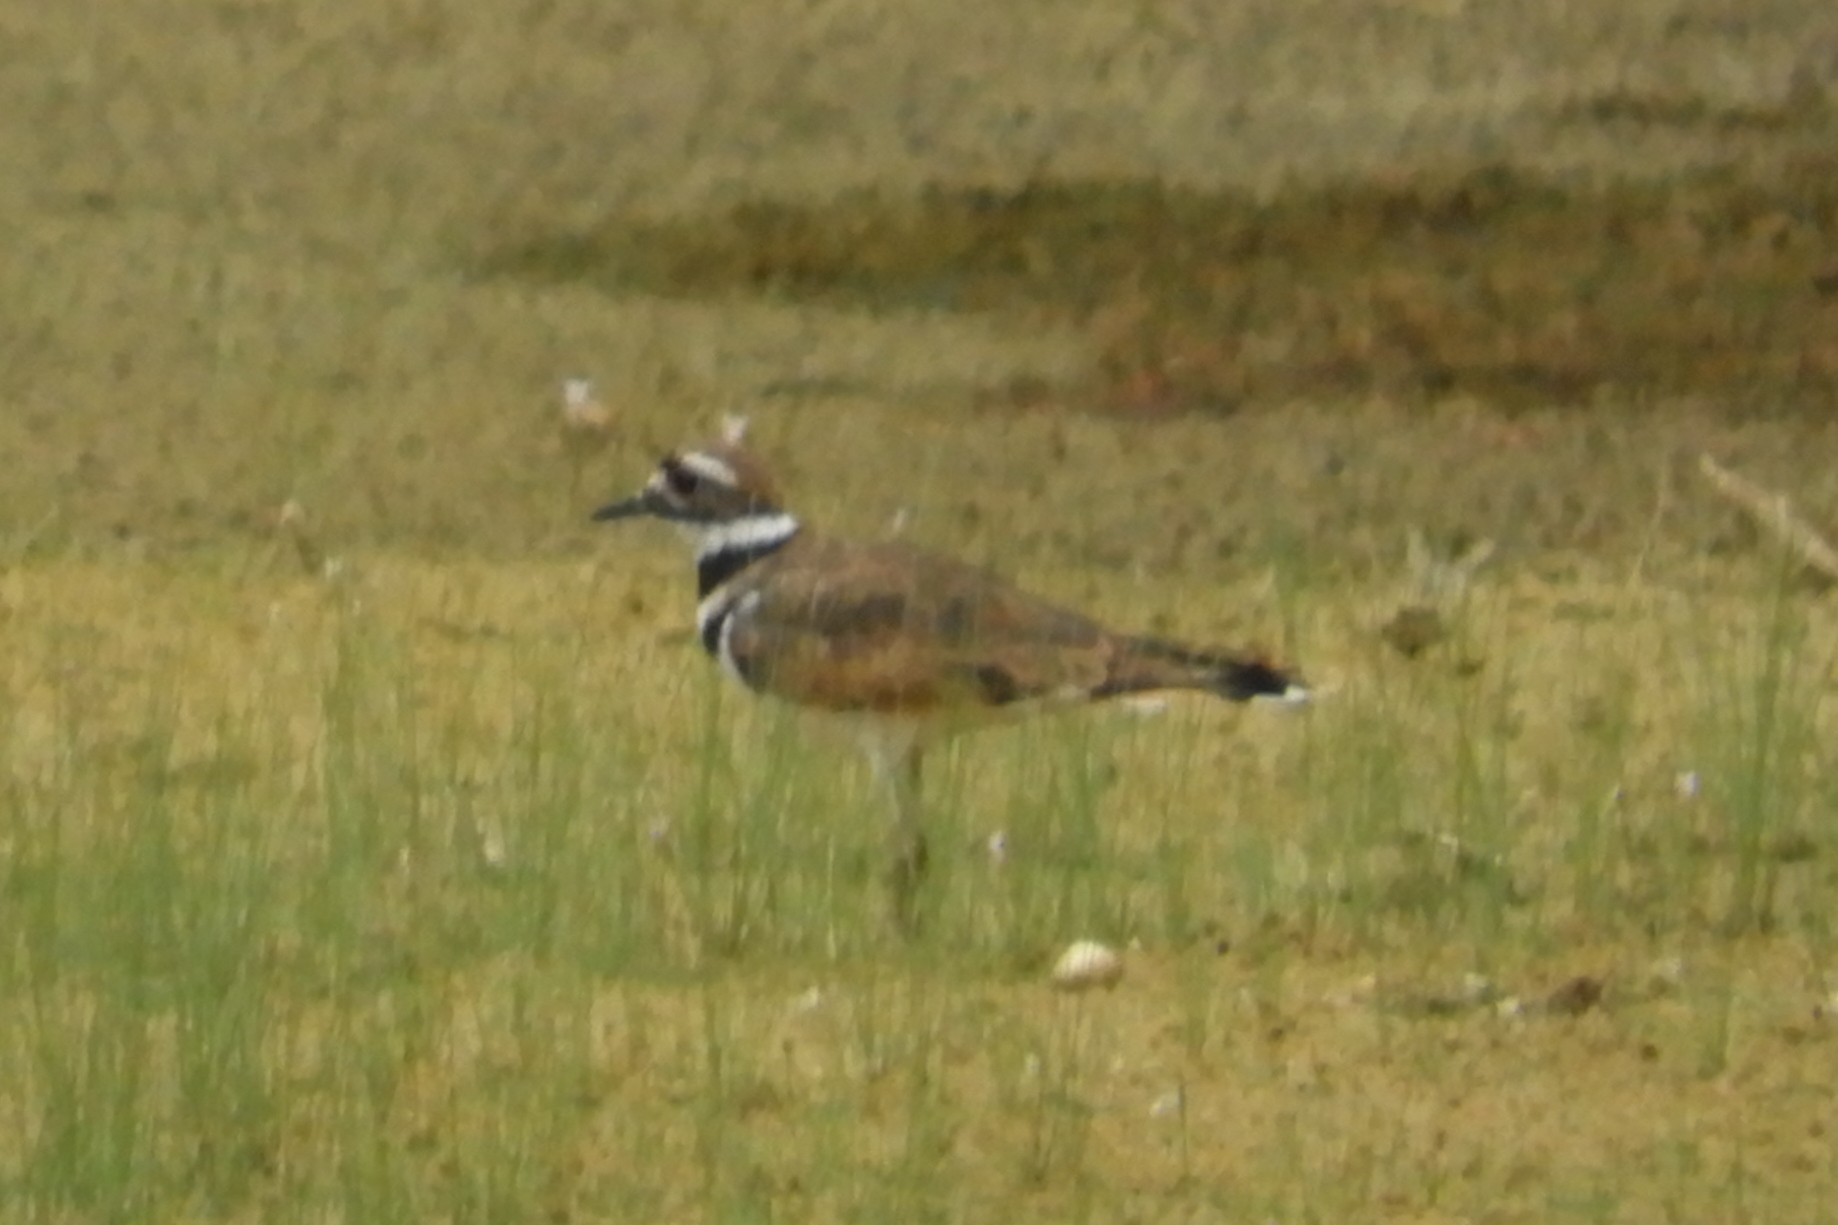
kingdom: Animalia
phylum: Chordata
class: Aves
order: Charadriiformes
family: Charadriidae
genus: Charadrius
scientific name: Charadrius vociferus
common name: Killdeer
